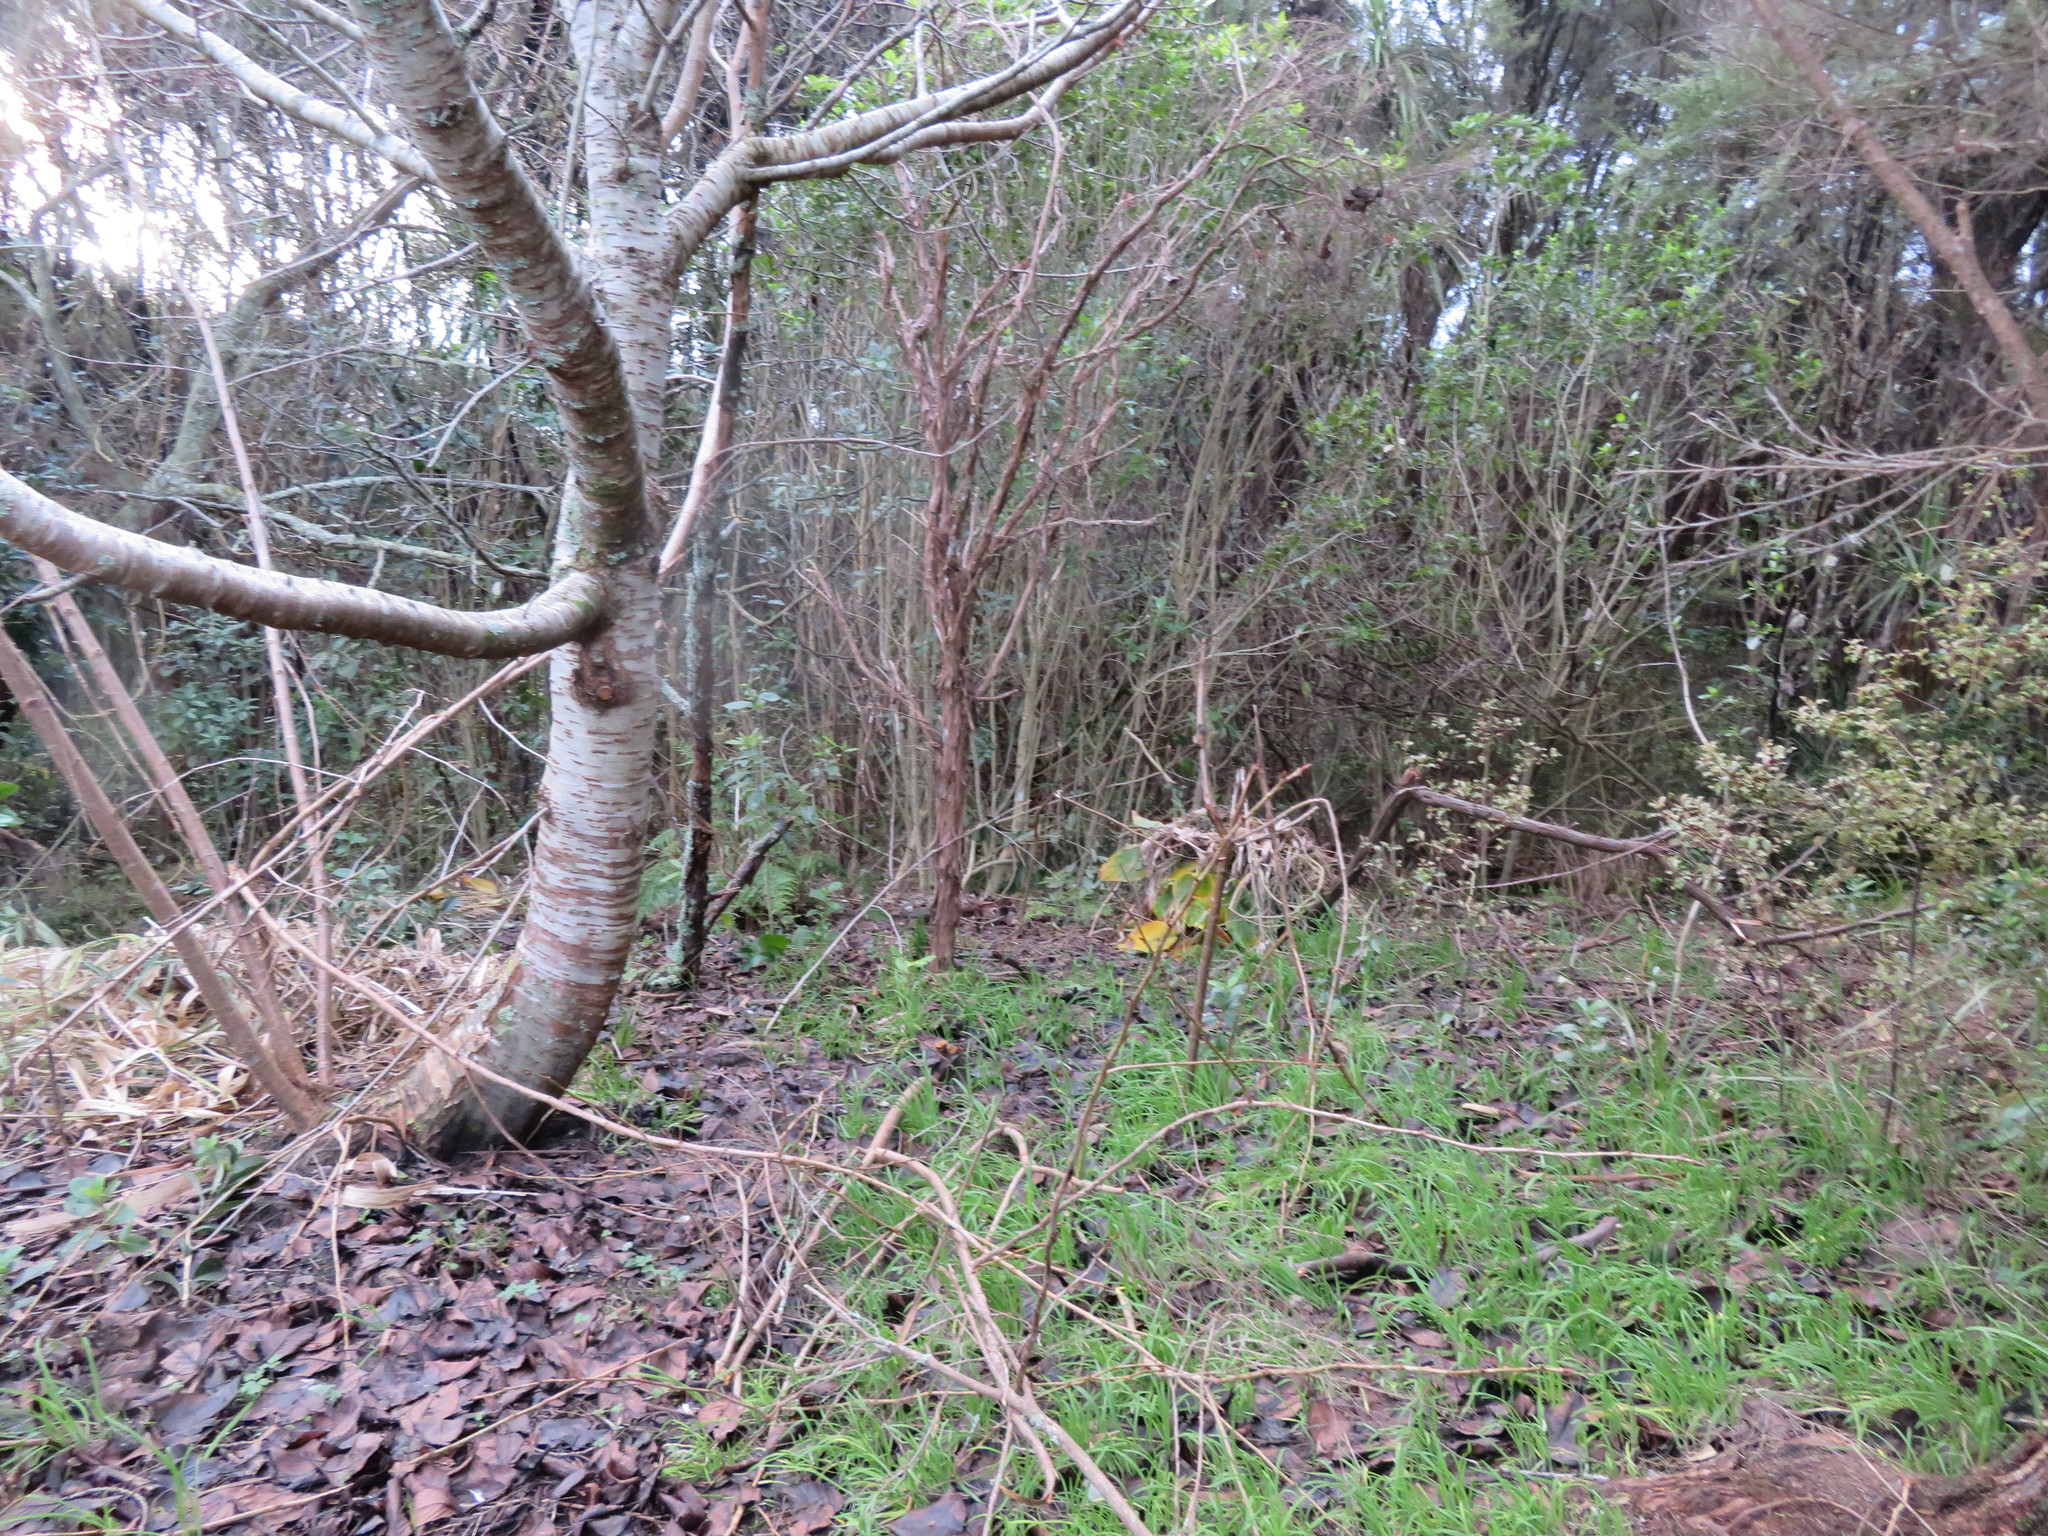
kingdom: Plantae
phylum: Tracheophyta
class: Magnoliopsida
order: Ericales
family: Primulaceae
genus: Myrsine
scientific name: Myrsine australis
